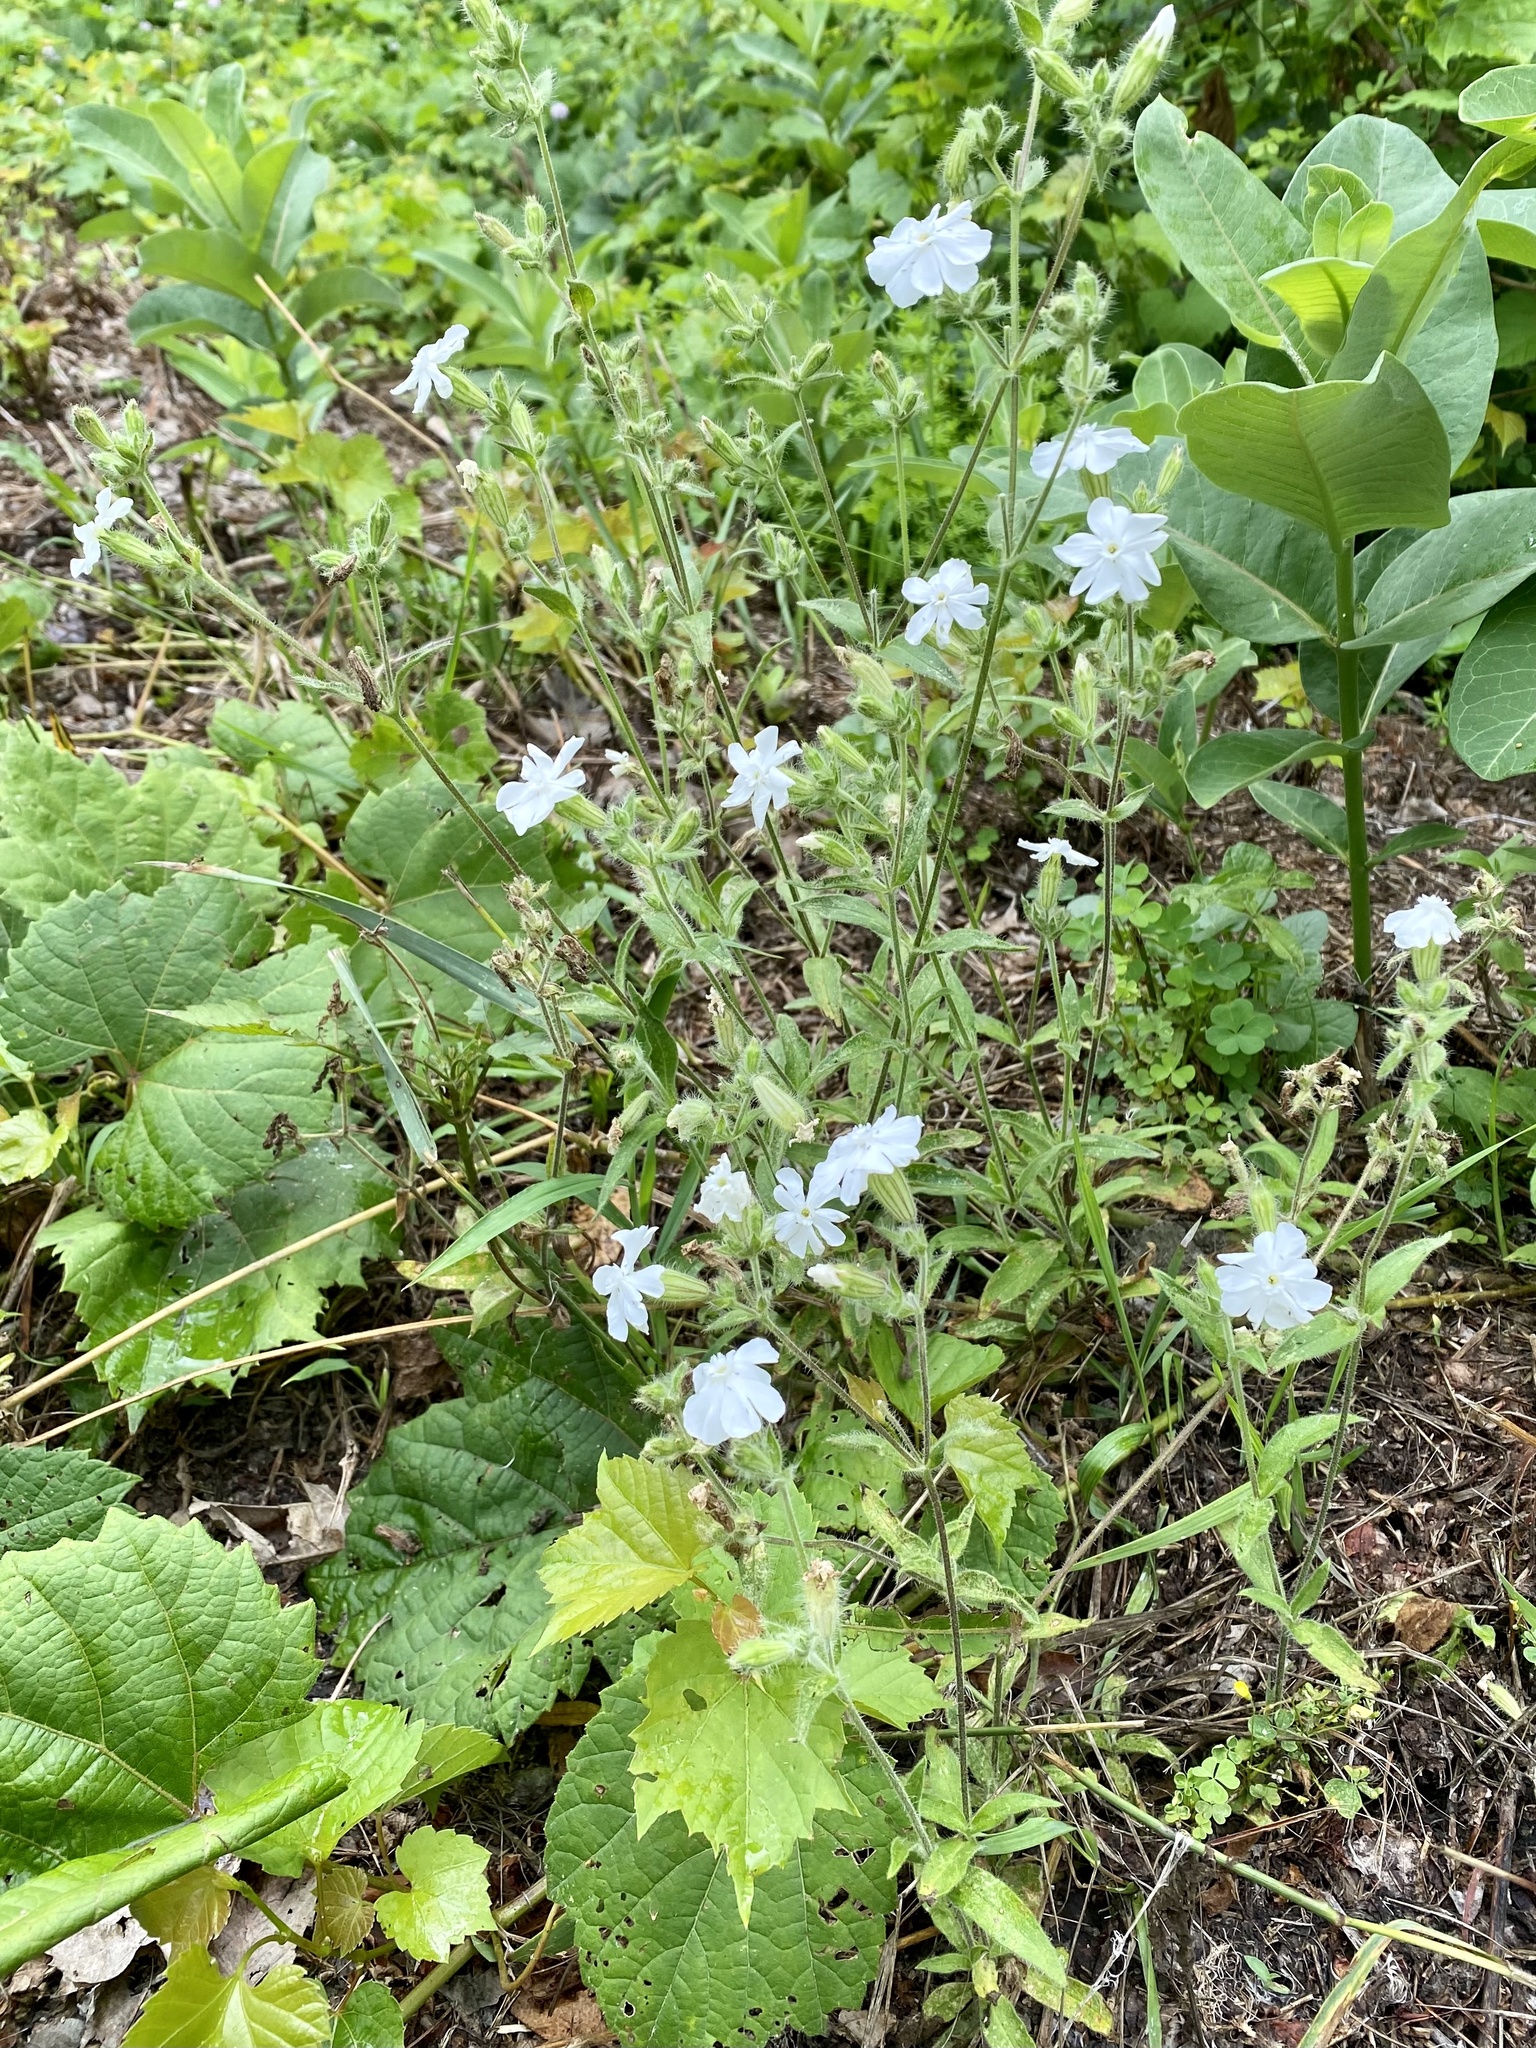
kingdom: Plantae
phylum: Tracheophyta
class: Magnoliopsida
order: Caryophyllales
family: Caryophyllaceae
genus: Silene
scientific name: Silene latifolia
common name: White campion
